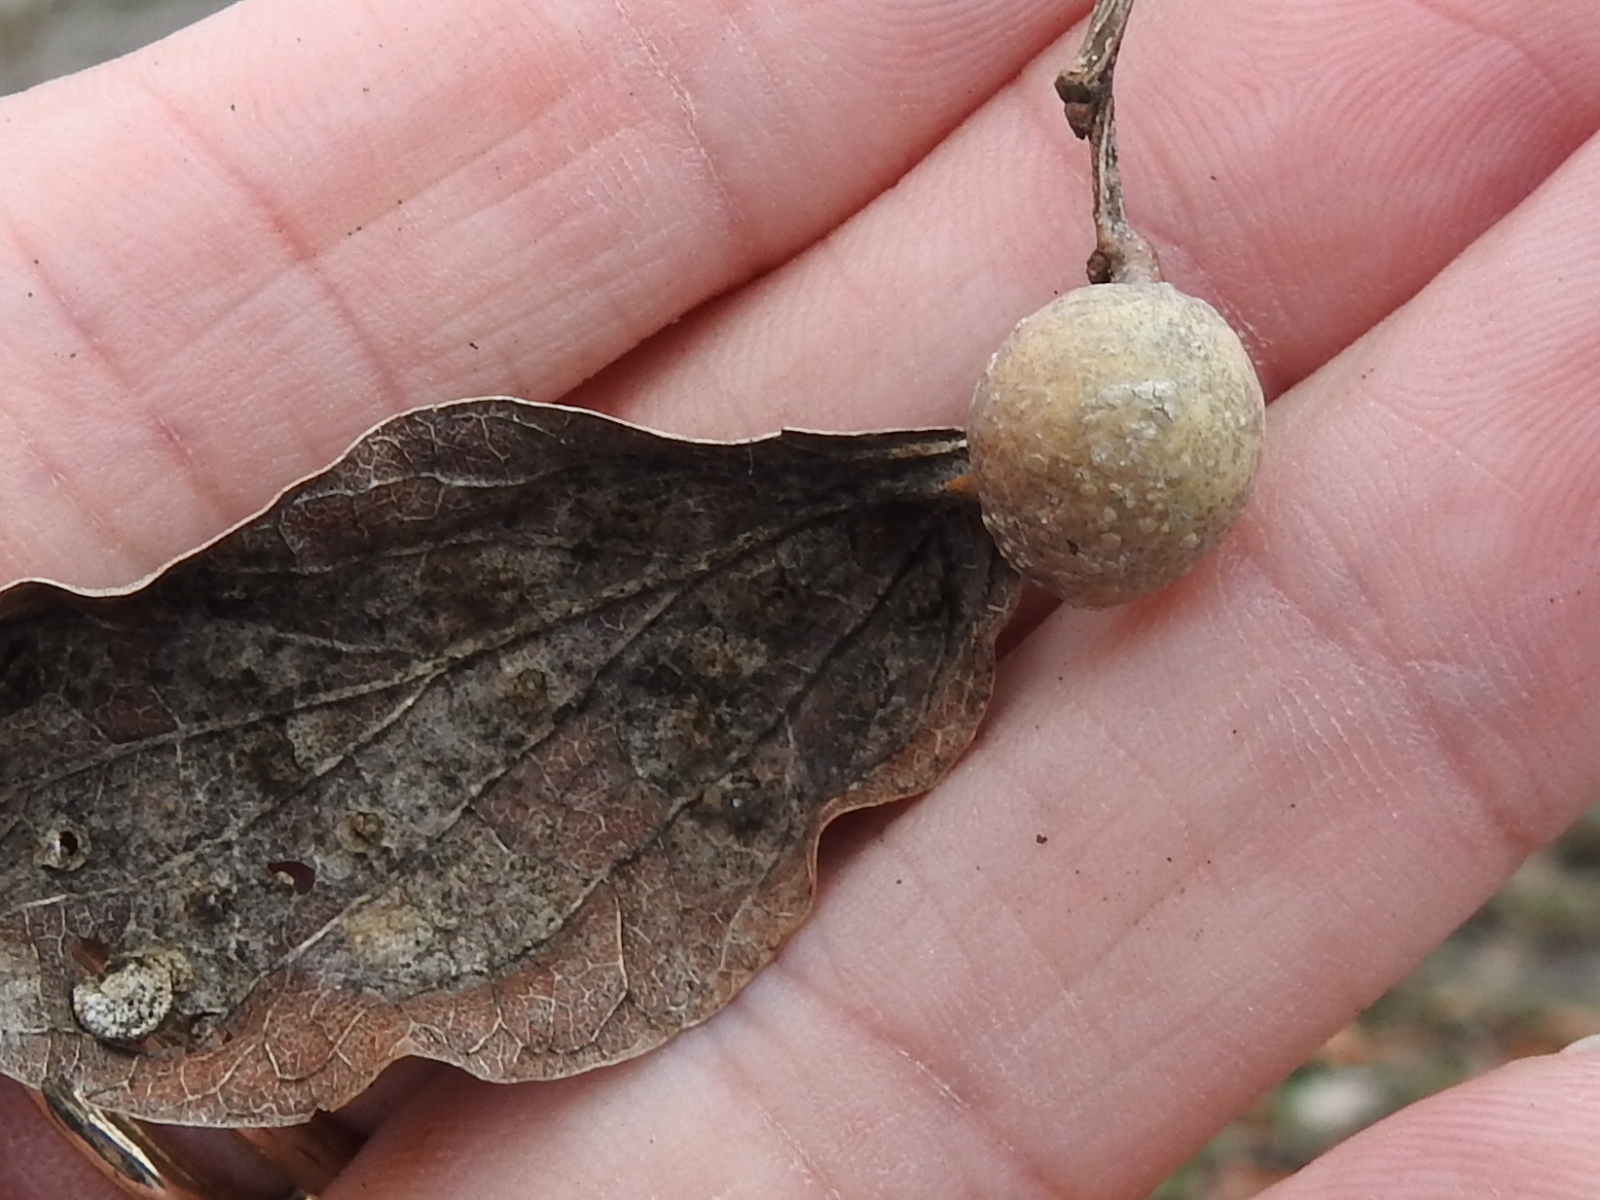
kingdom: Animalia
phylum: Arthropoda
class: Insecta
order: Hemiptera
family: Aphalaridae
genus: Pachypsylla
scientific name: Pachypsylla venusta
